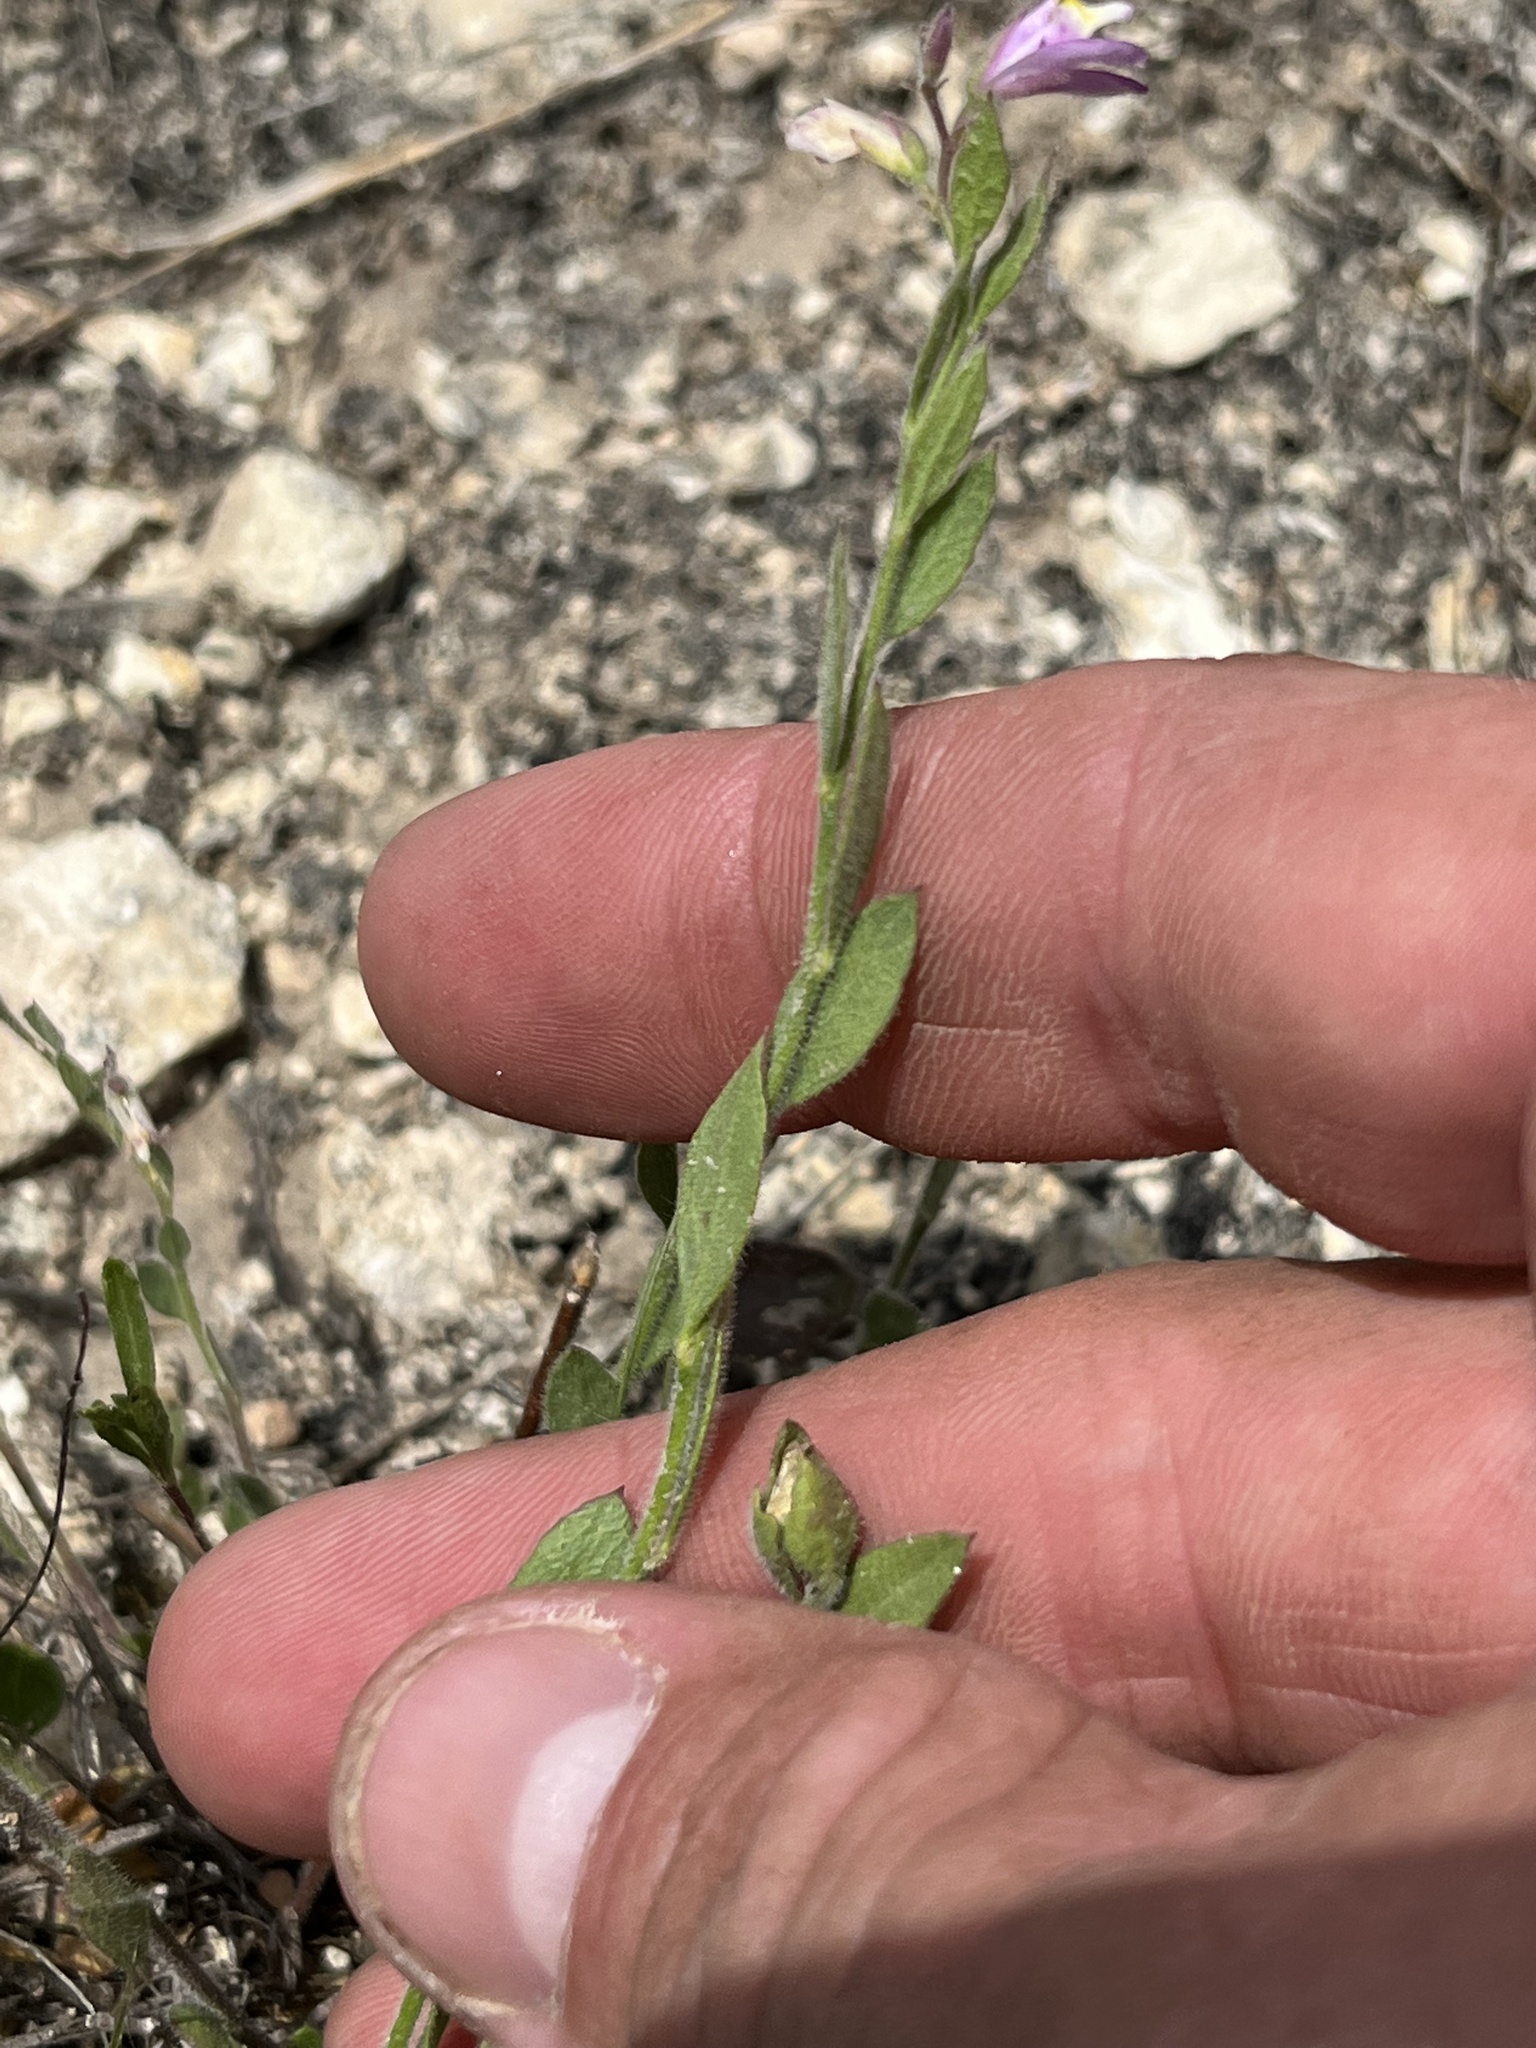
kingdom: Plantae
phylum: Tracheophyta
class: Magnoliopsida
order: Fabales
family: Polygalaceae
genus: Rhinotropis
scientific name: Rhinotropis lindheimeri
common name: Shrubby milkwort
